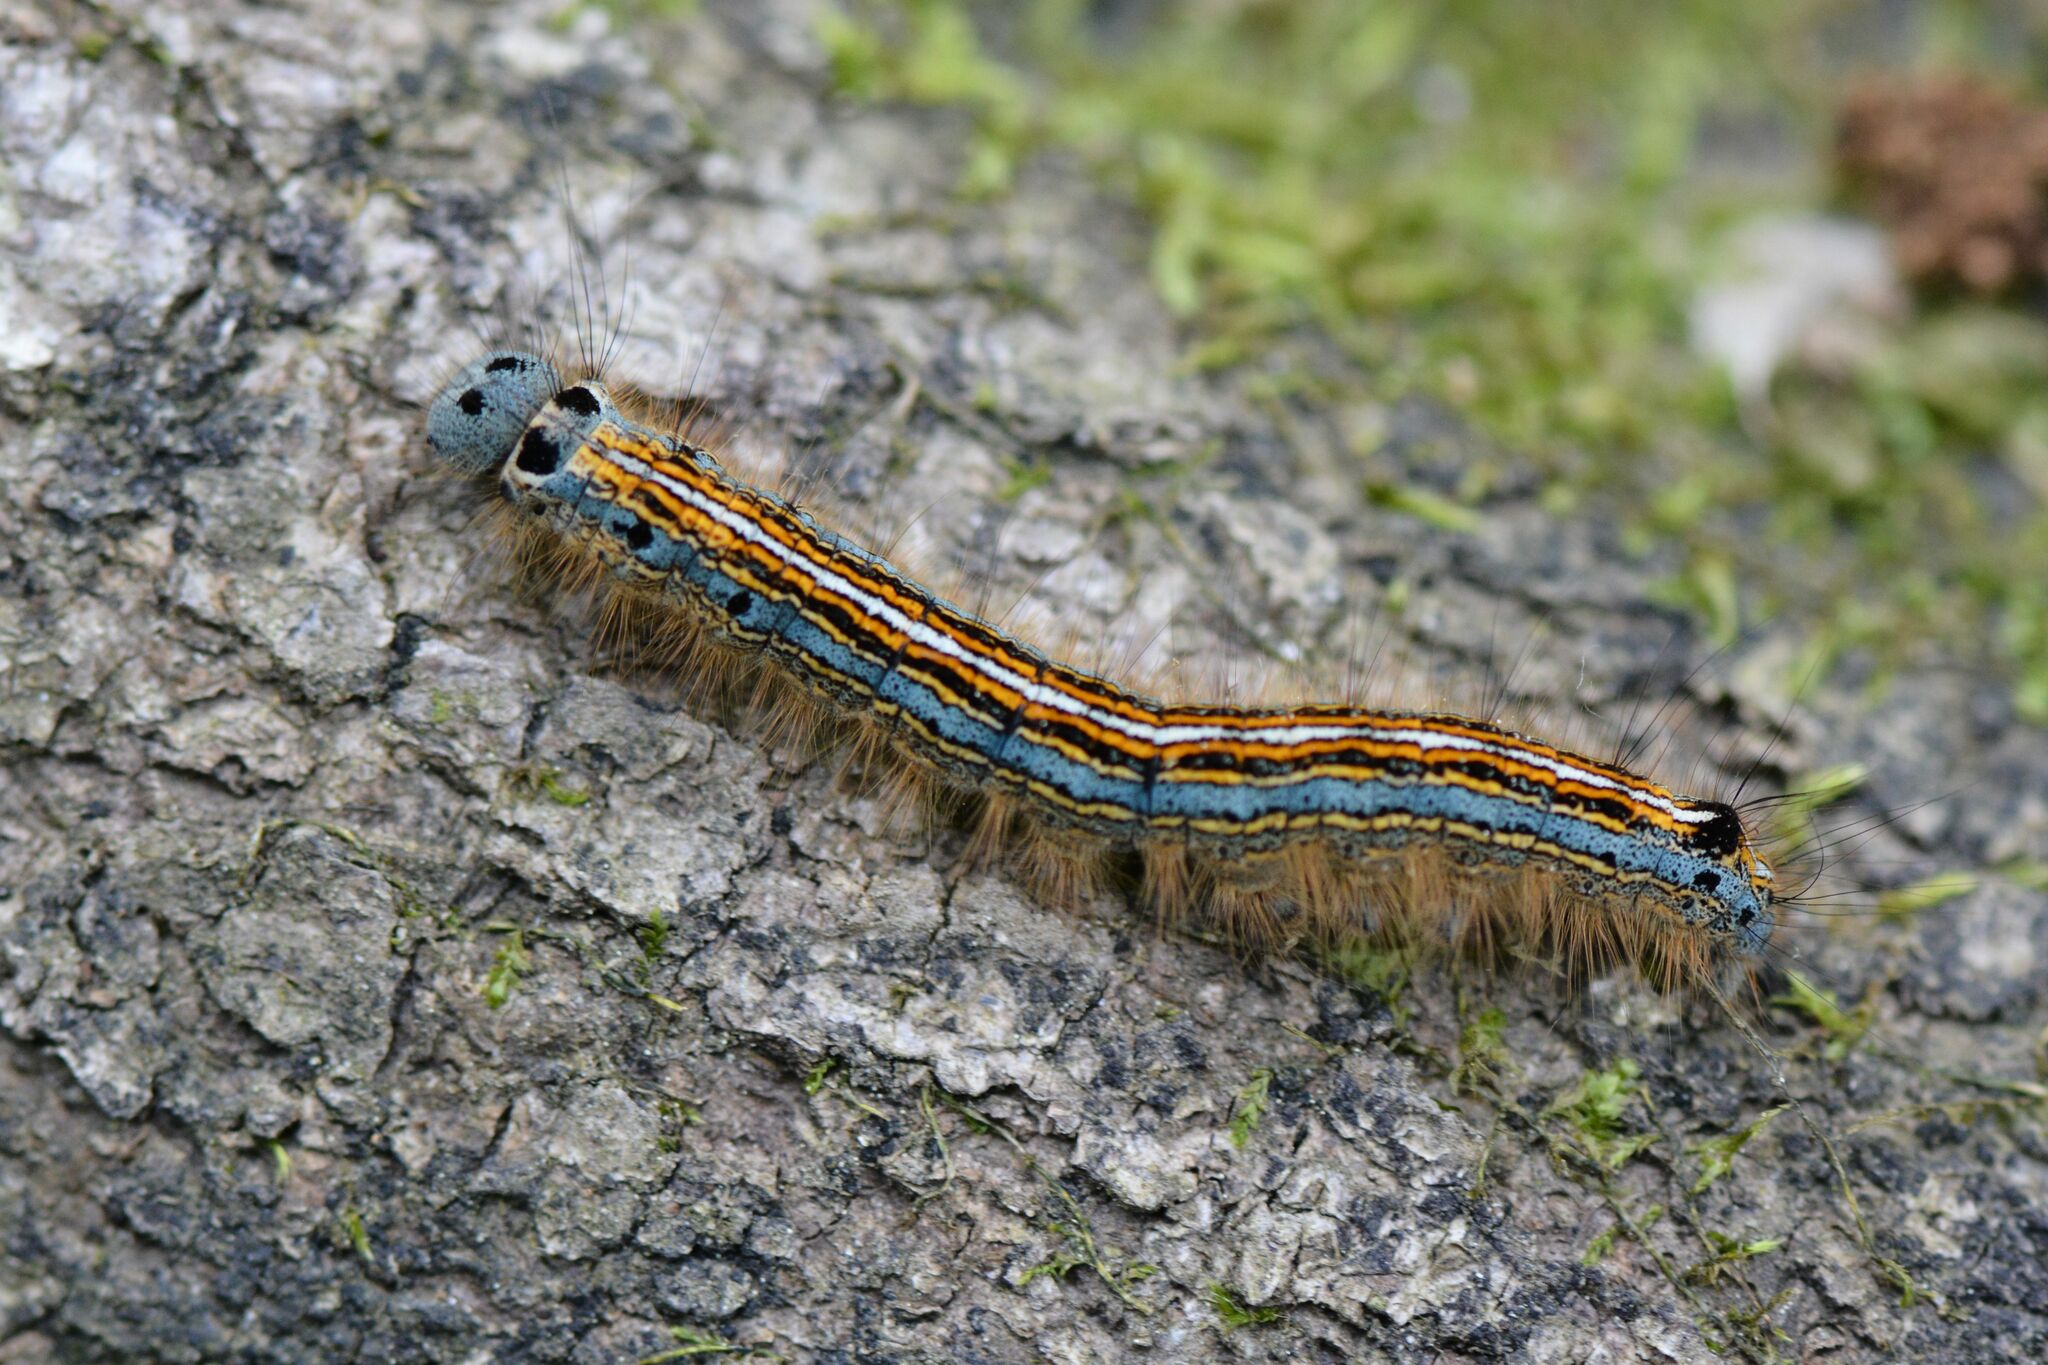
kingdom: Animalia
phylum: Arthropoda
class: Insecta
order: Lepidoptera
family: Lasiocampidae
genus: Malacosoma
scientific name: Malacosoma neustria
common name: The lackey
